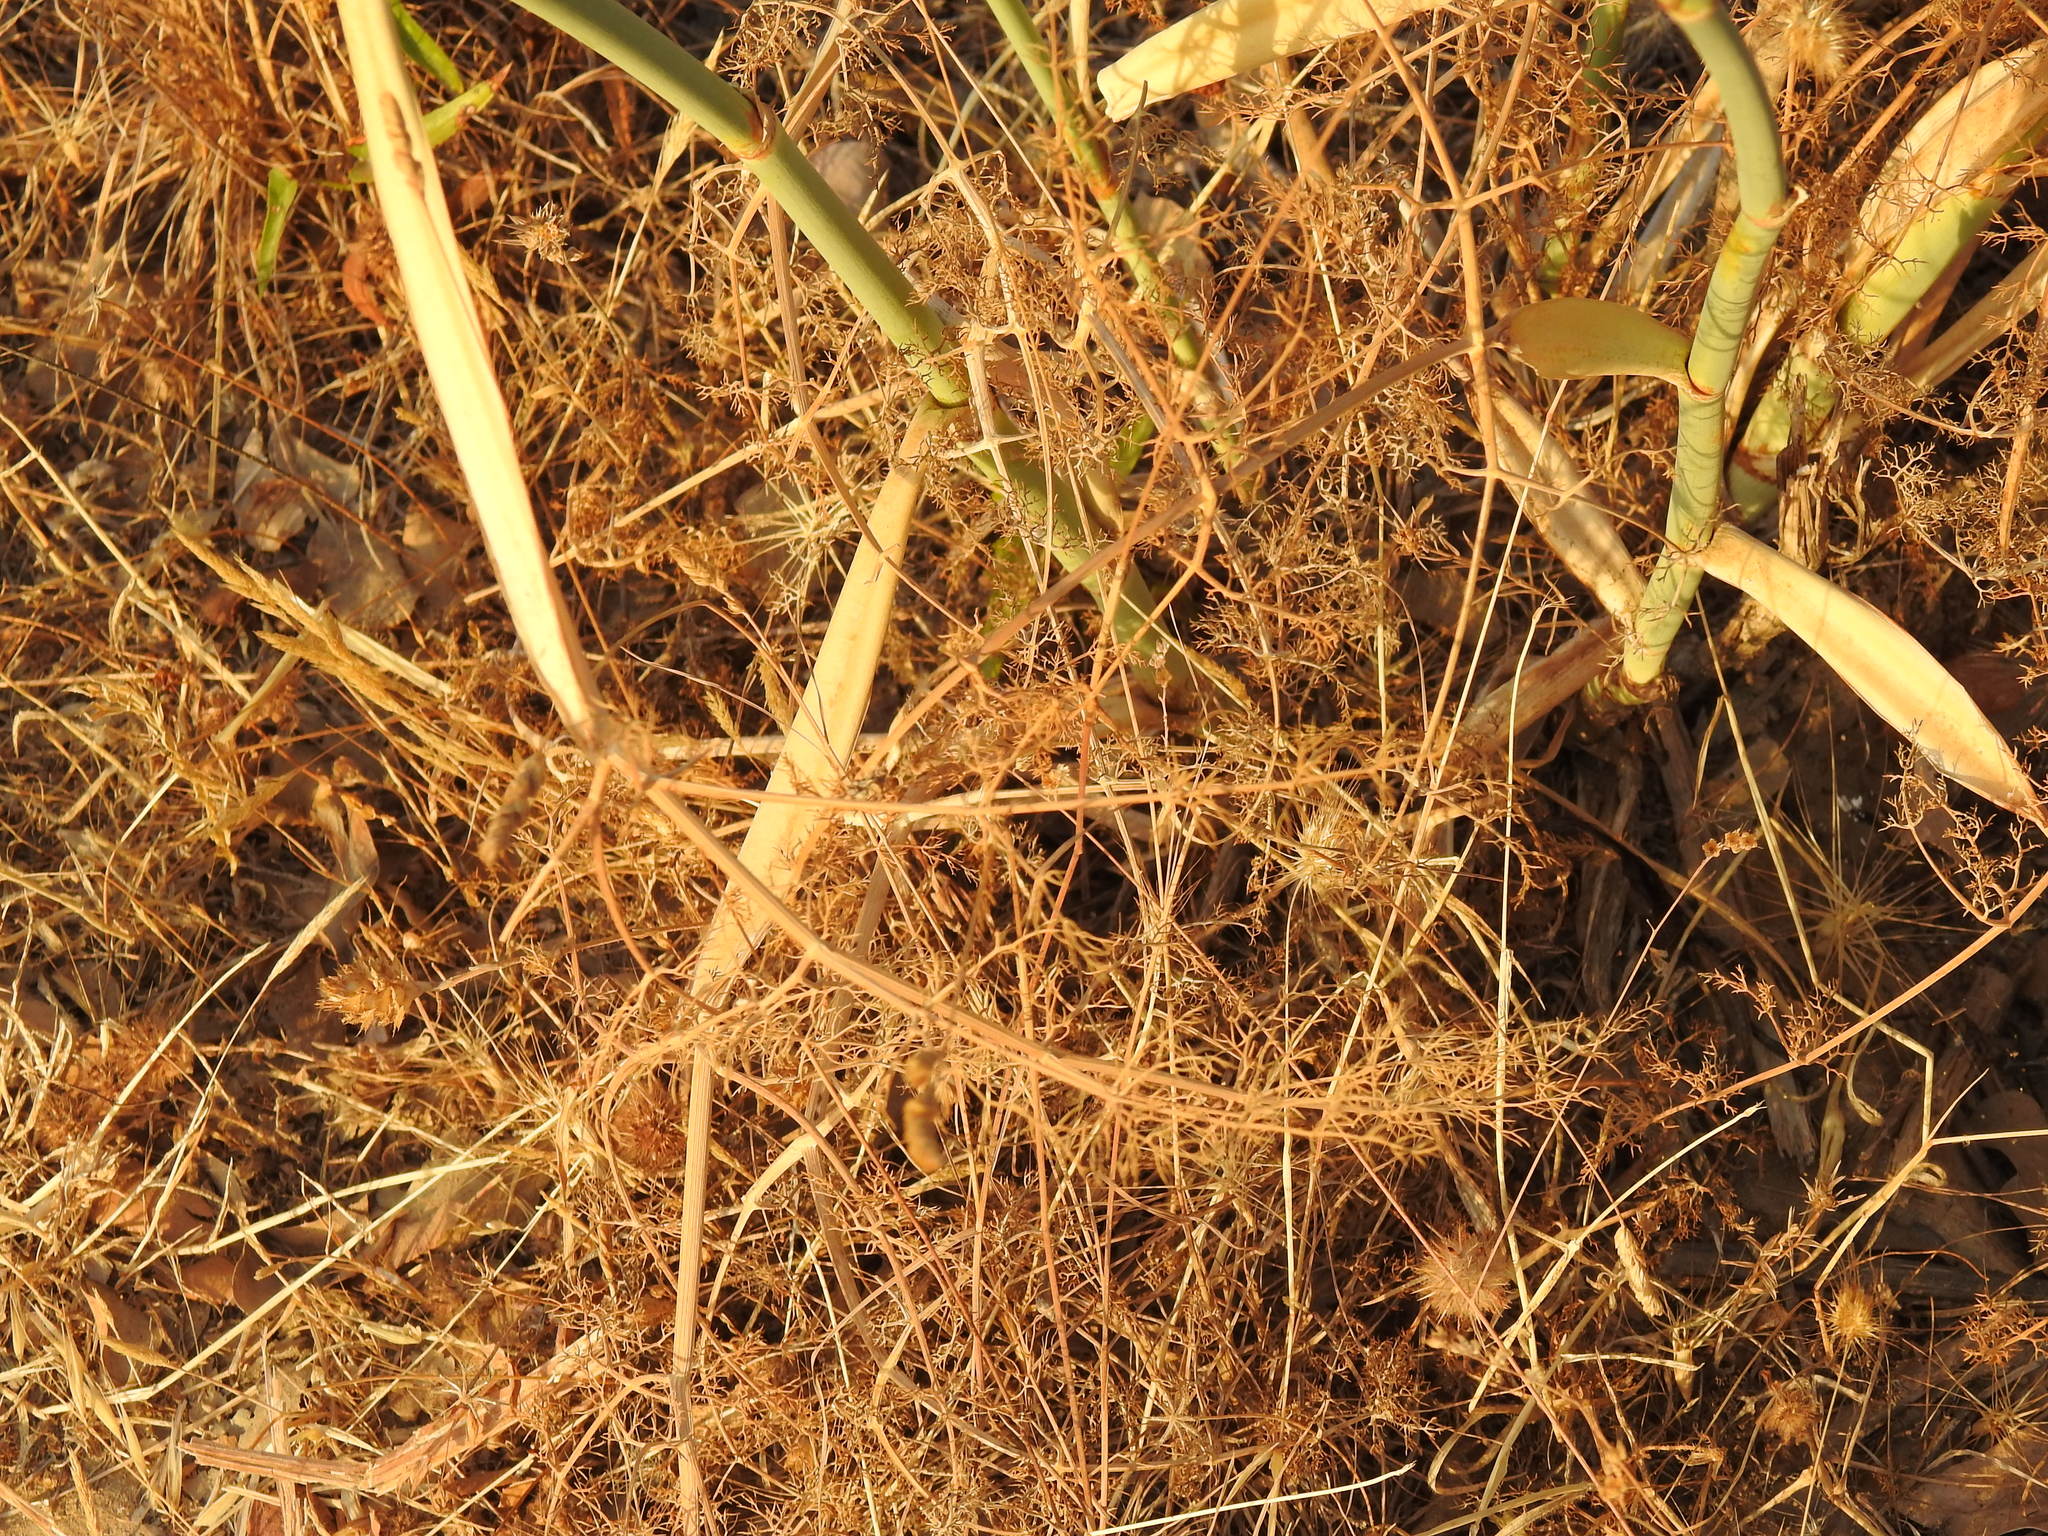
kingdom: Plantae
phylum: Tracheophyta
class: Magnoliopsida
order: Apiales
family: Apiaceae
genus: Foeniculum
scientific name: Foeniculum vulgare
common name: Fennel
